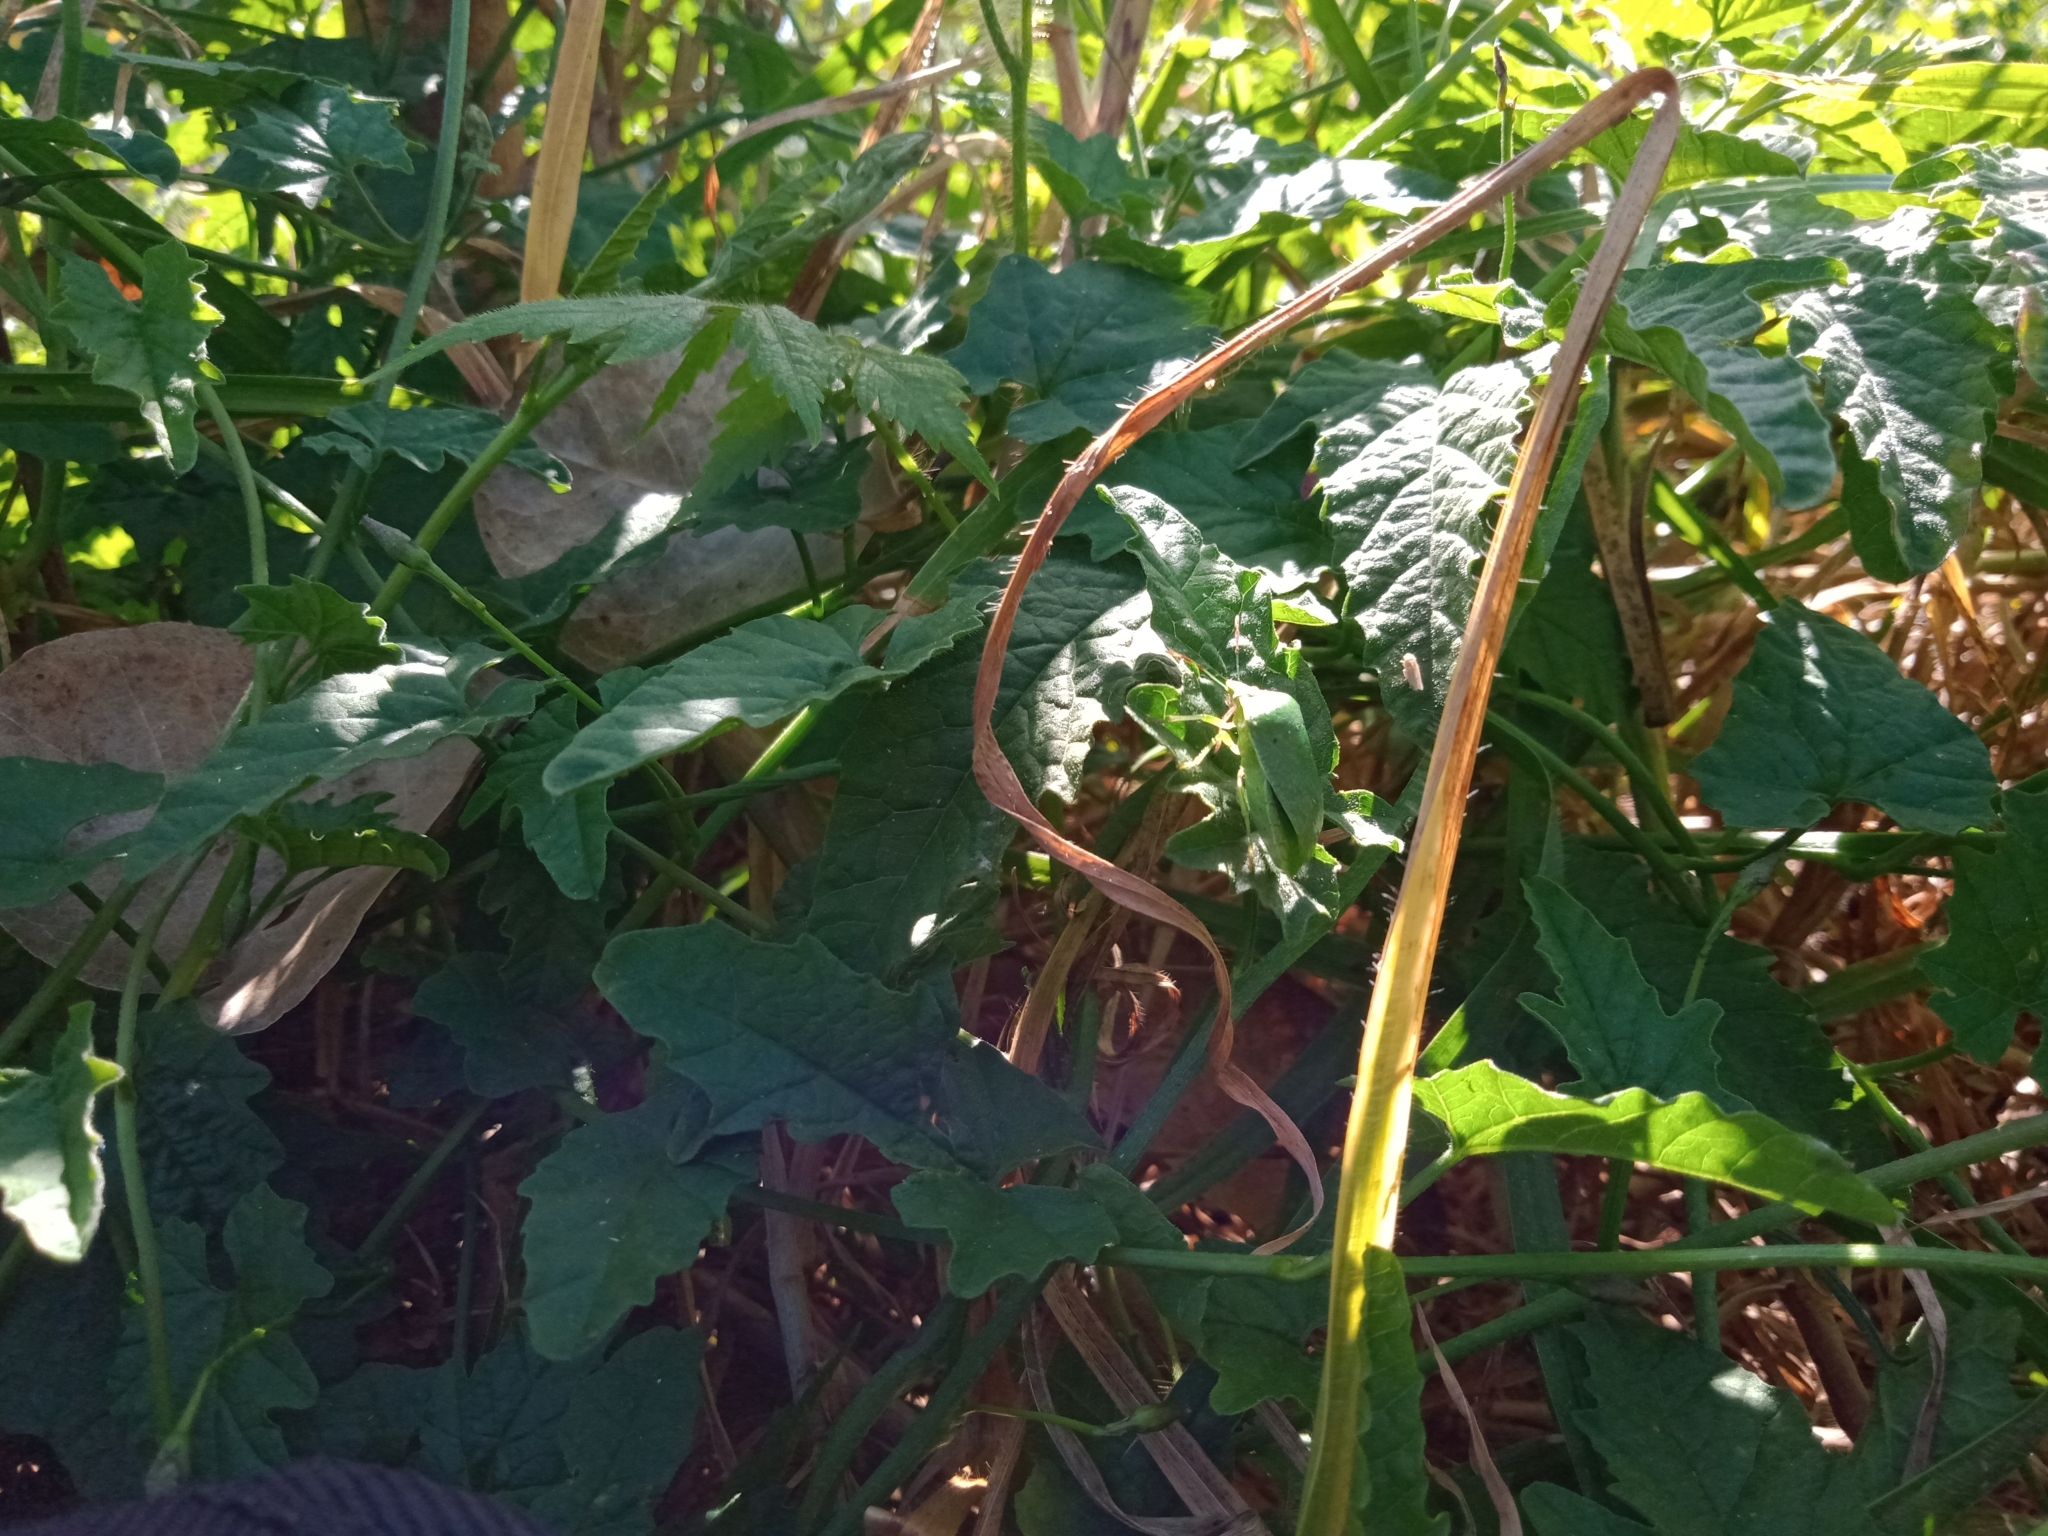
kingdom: Animalia
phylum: Arthropoda
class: Insecta
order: Hemiptera
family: Pentatomidae
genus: Nezara
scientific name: Nezara viridula
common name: Southern green stink bug
